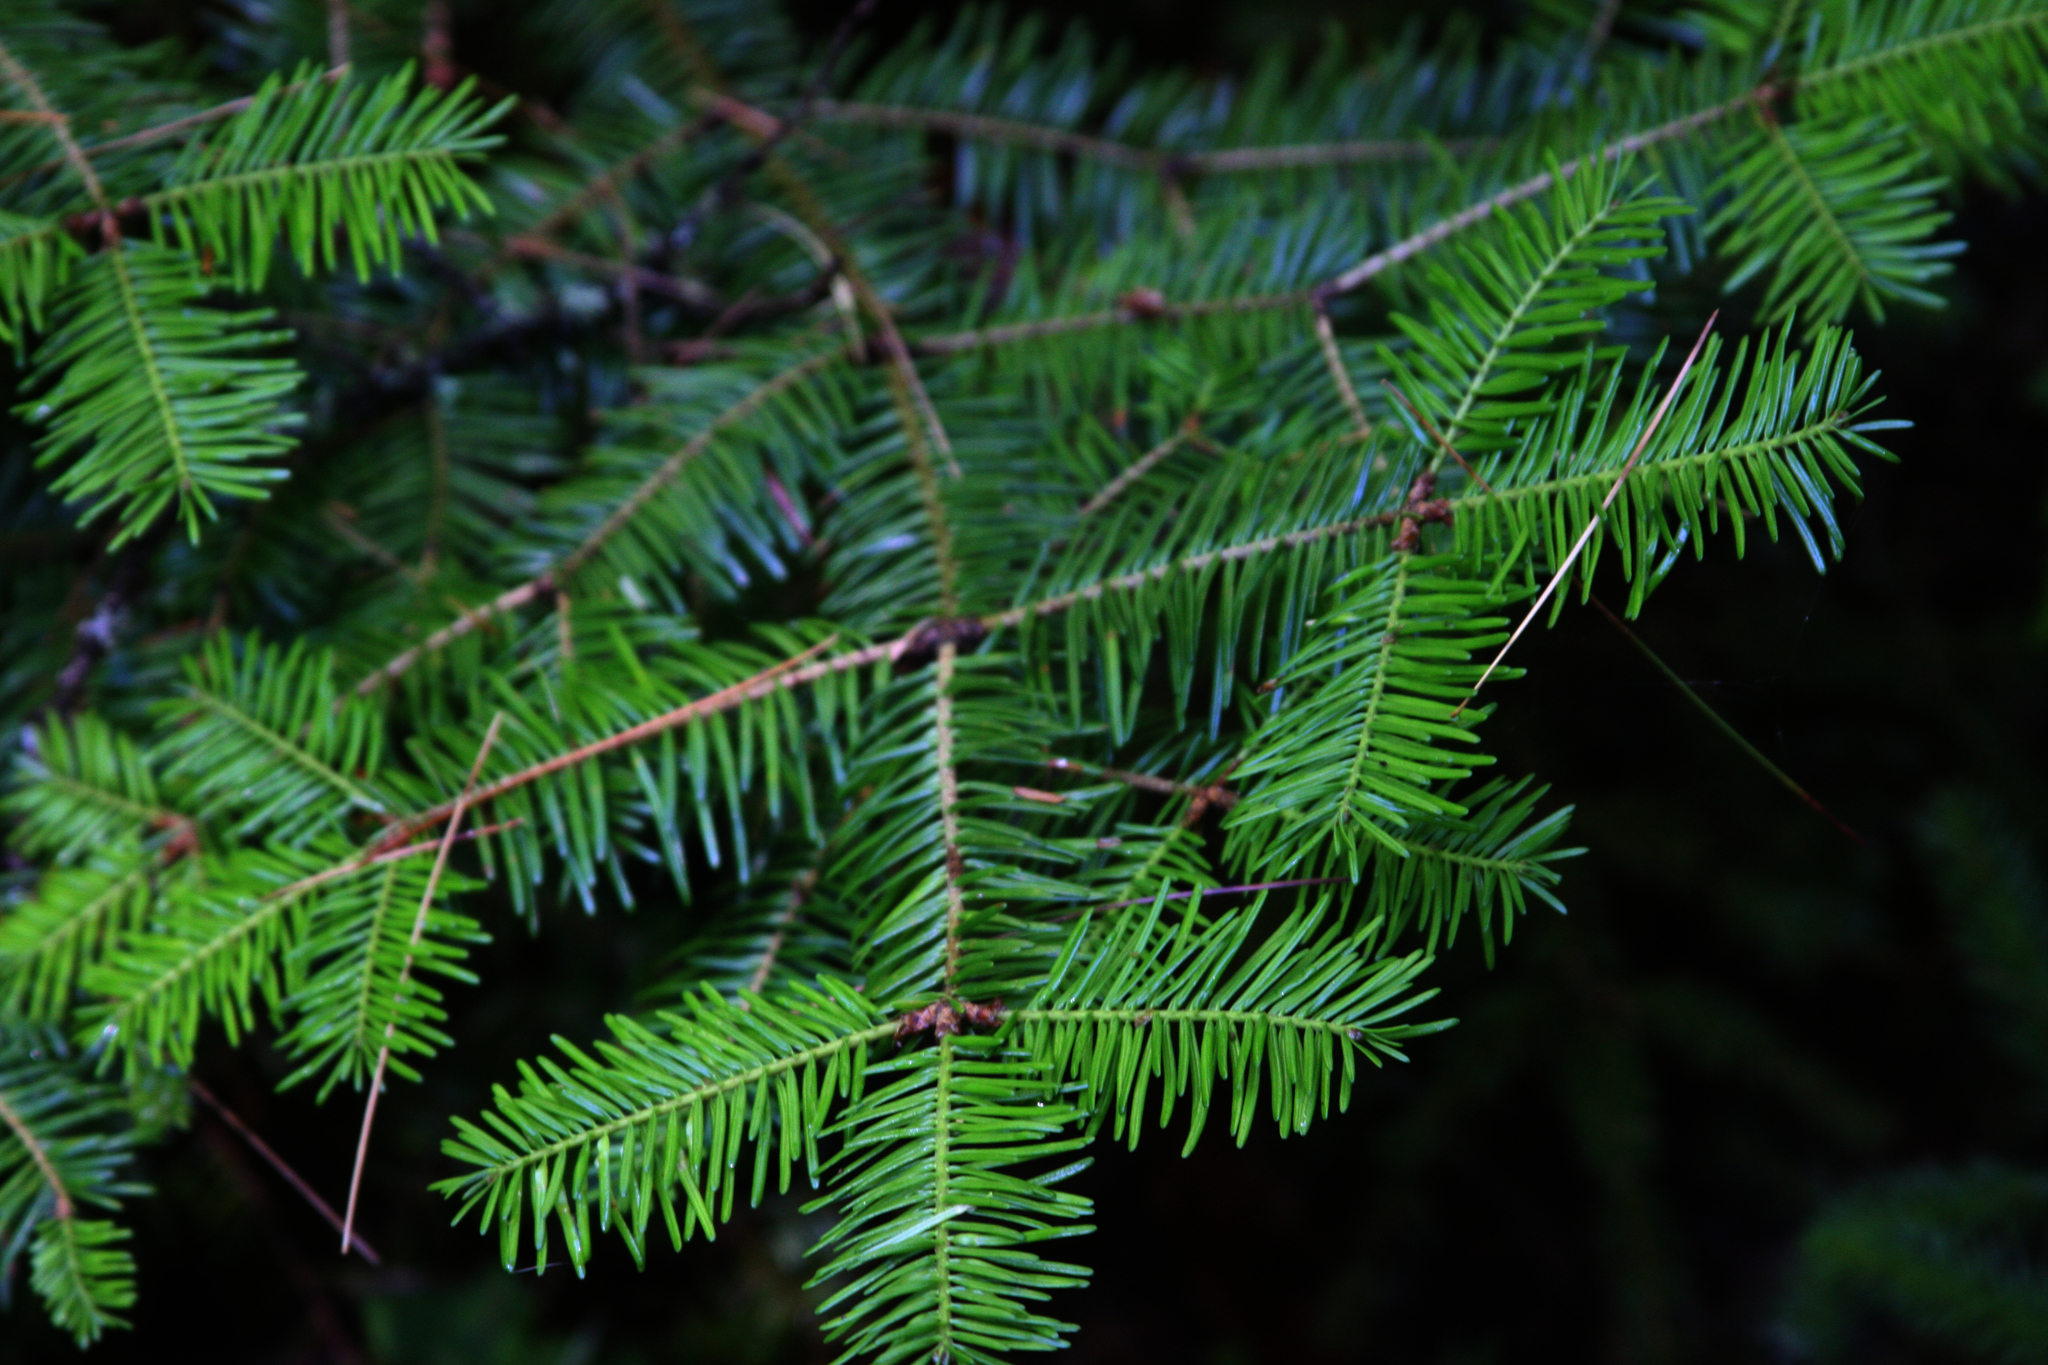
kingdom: Plantae
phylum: Tracheophyta
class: Pinopsida
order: Pinales
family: Pinaceae
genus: Abies
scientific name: Abies balsamea
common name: Balsam fir
